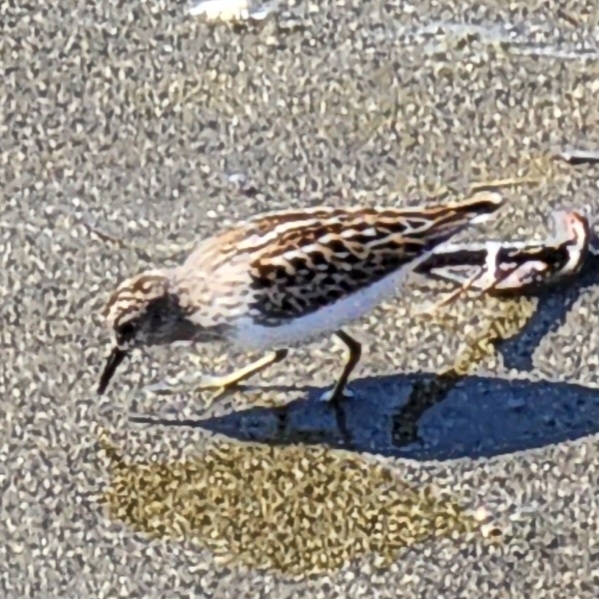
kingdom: Animalia
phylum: Chordata
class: Aves
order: Charadriiformes
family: Scolopacidae
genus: Calidris
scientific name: Calidris minutilla
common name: Least sandpiper
